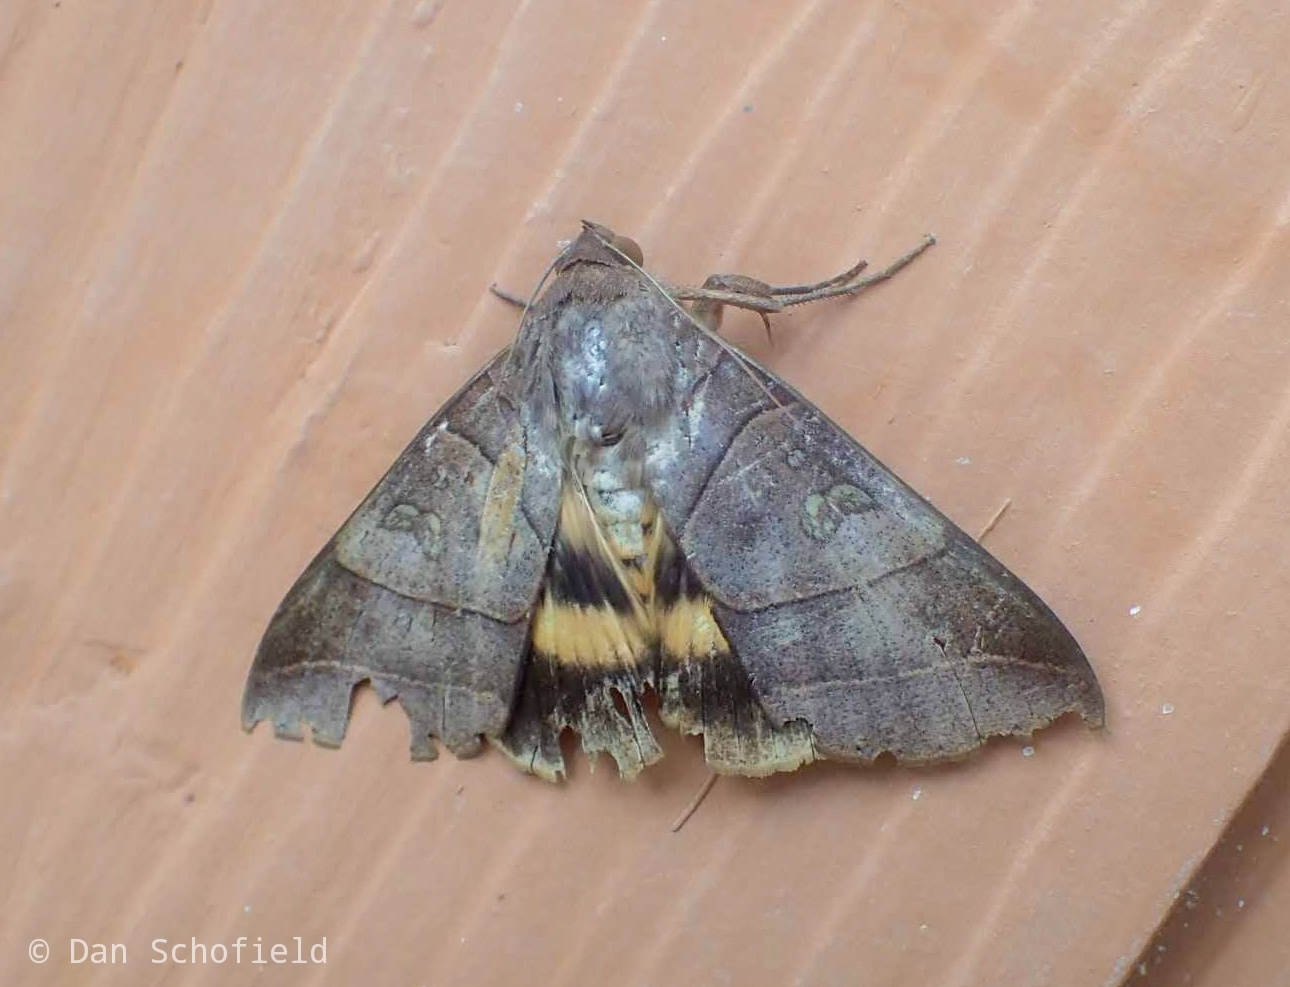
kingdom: Animalia
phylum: Arthropoda
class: Insecta
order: Lepidoptera
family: Erebidae
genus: Thyas
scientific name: Thyas coronata
